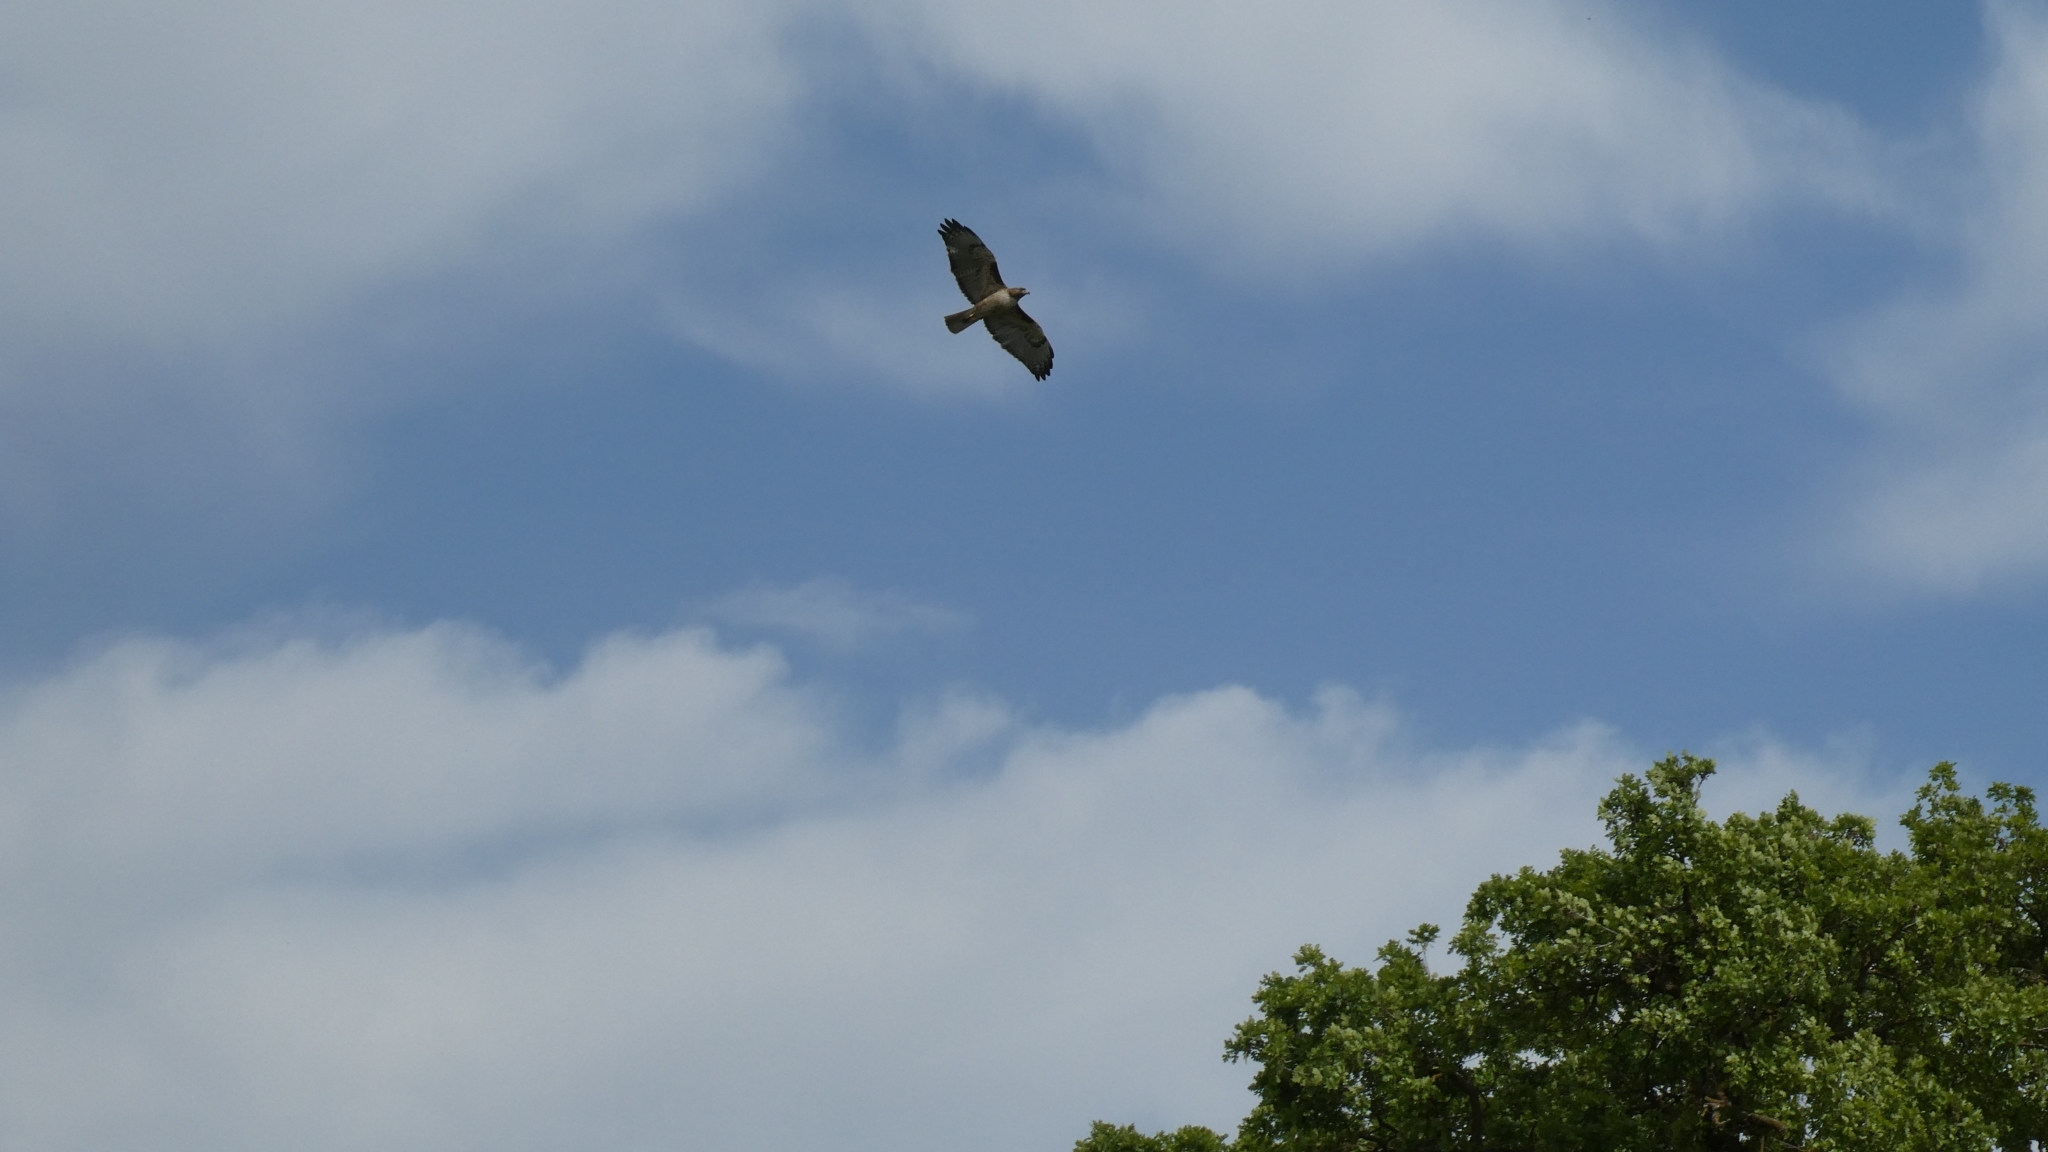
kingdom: Animalia
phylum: Chordata
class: Aves
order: Accipitriformes
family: Accipitridae
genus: Buteo
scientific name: Buteo jamaicensis
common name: Red-tailed hawk
